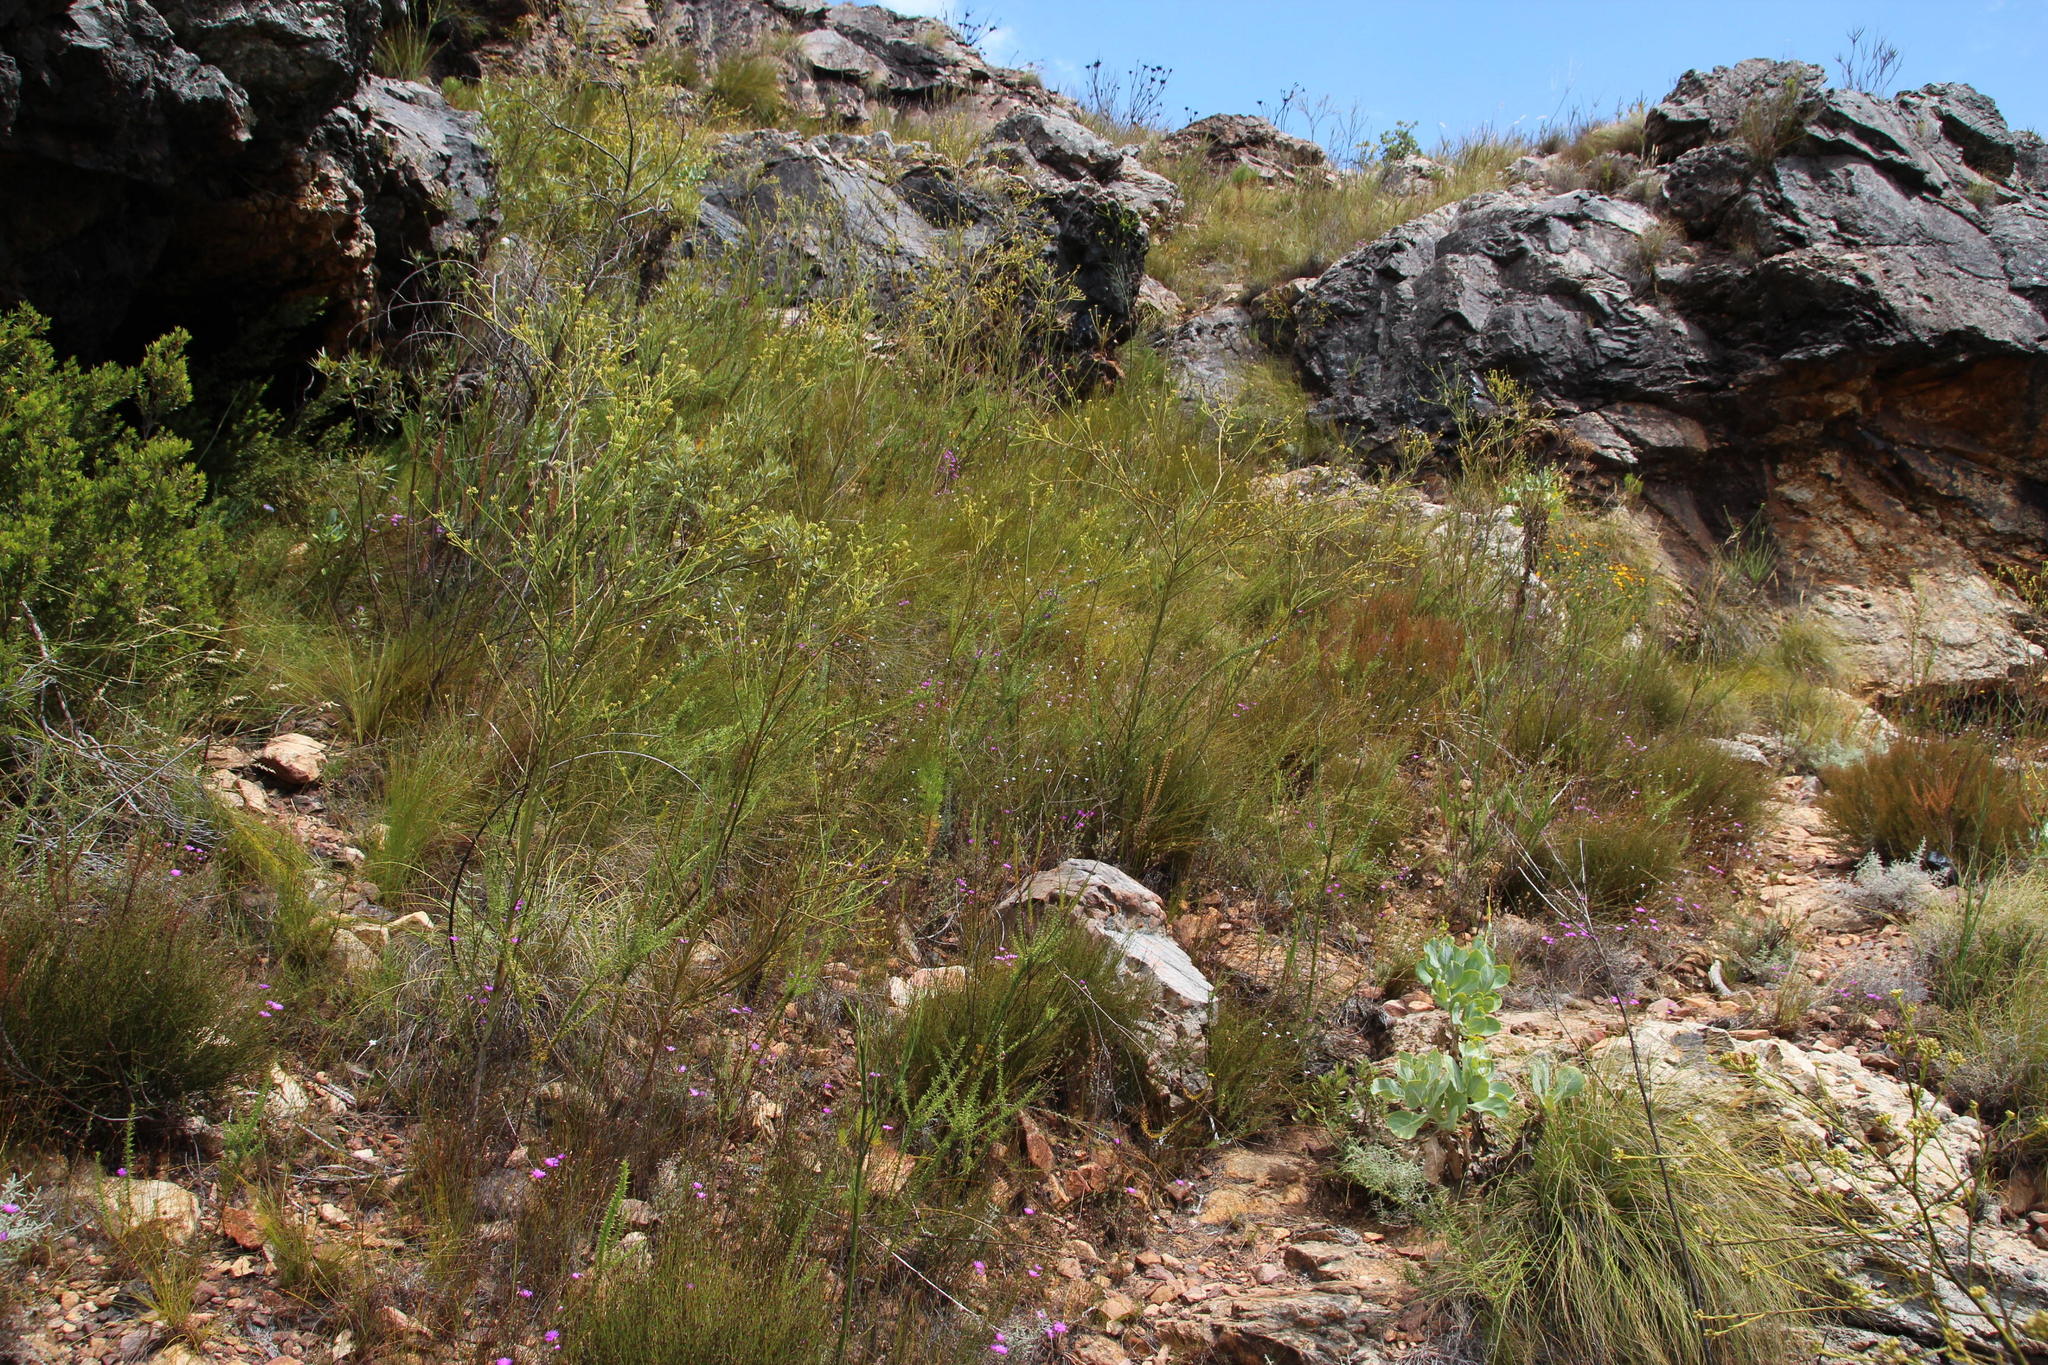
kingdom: Plantae
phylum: Tracheophyta
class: Magnoliopsida
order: Santalales
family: Thesiaceae
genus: Thesium
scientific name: Thesium strictum
